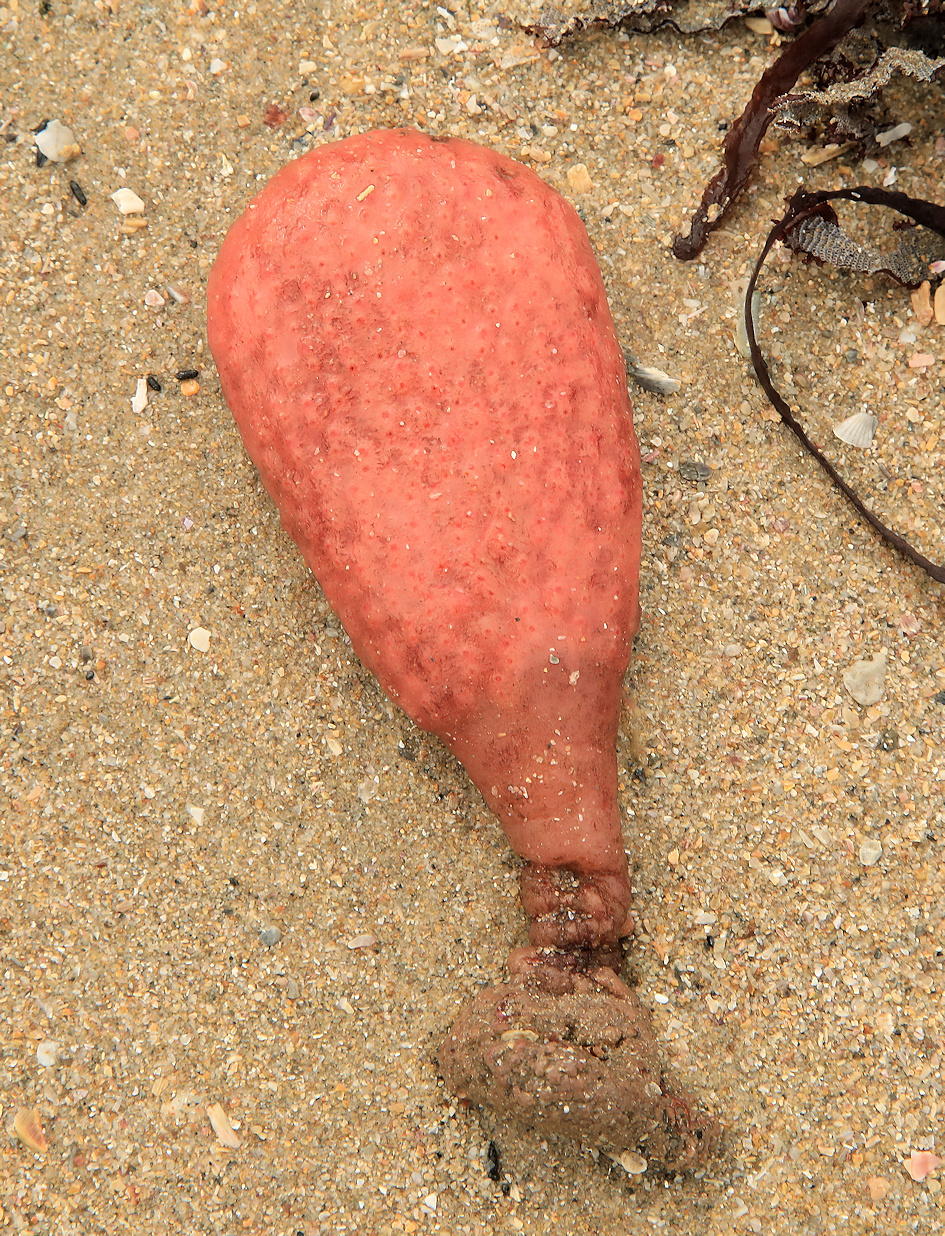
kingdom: Animalia
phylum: Chordata
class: Ascidiacea
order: Stolidobranchia
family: Styelidae
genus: Gynandrocarpa
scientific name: Gynandrocarpa placenta
